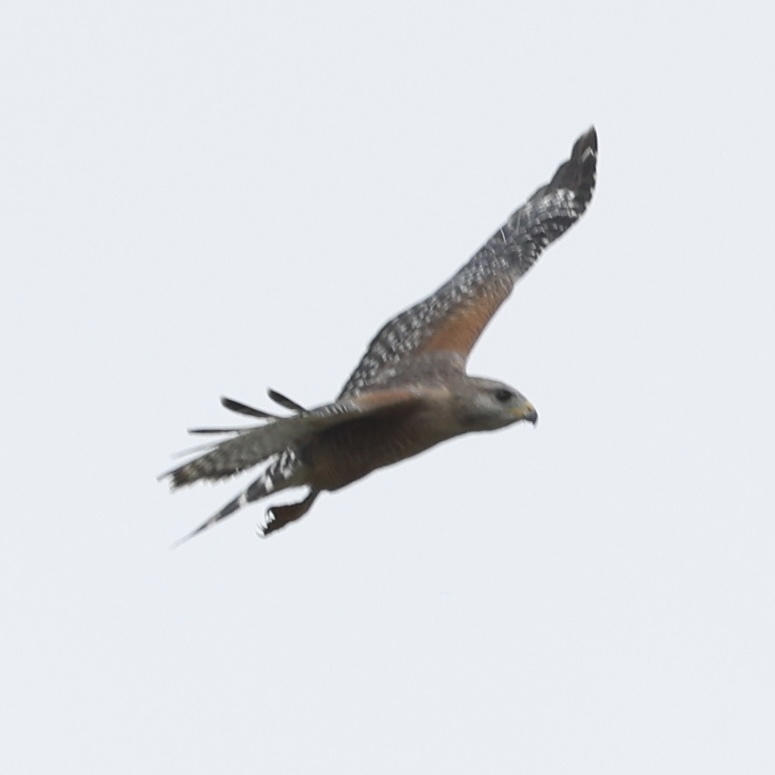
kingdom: Animalia
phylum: Chordata
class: Aves
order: Accipitriformes
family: Accipitridae
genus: Buteo
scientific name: Buteo lineatus
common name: Red-shouldered hawk
